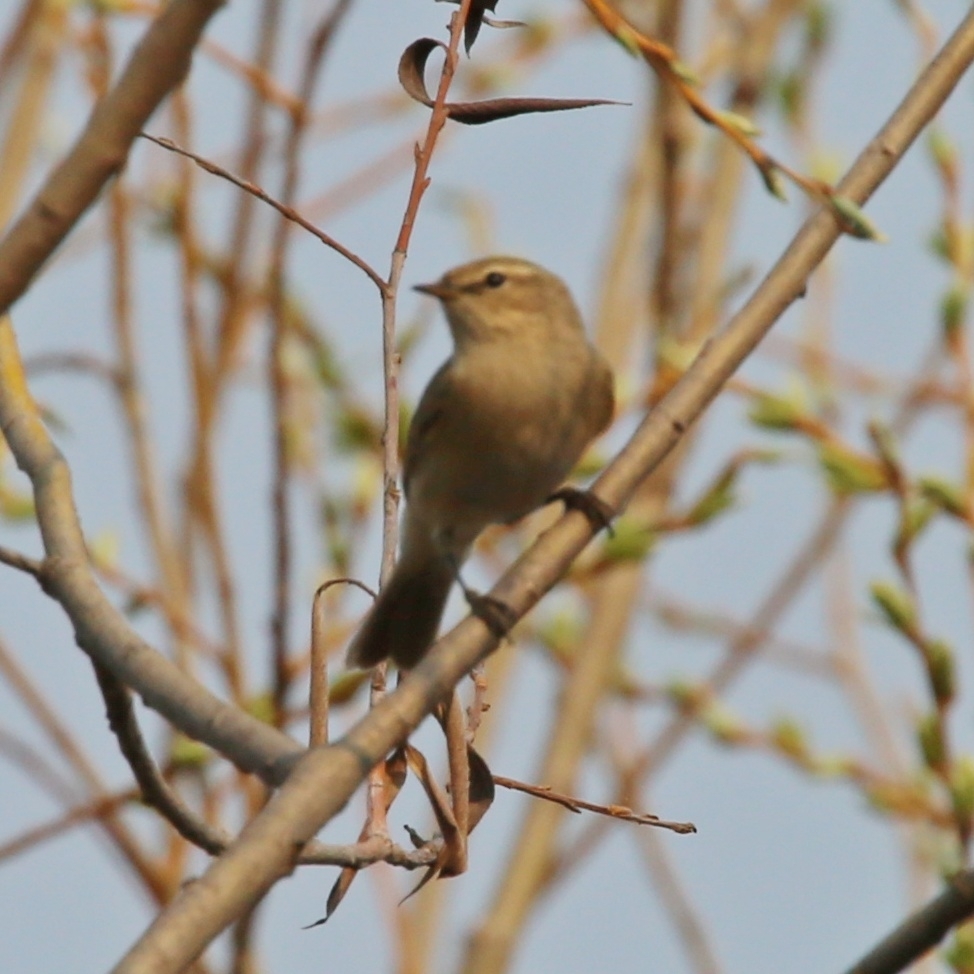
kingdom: Animalia
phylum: Chordata
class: Aves
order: Passeriformes
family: Phylloscopidae
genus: Phylloscopus
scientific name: Phylloscopus collybita
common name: Common chiffchaff
